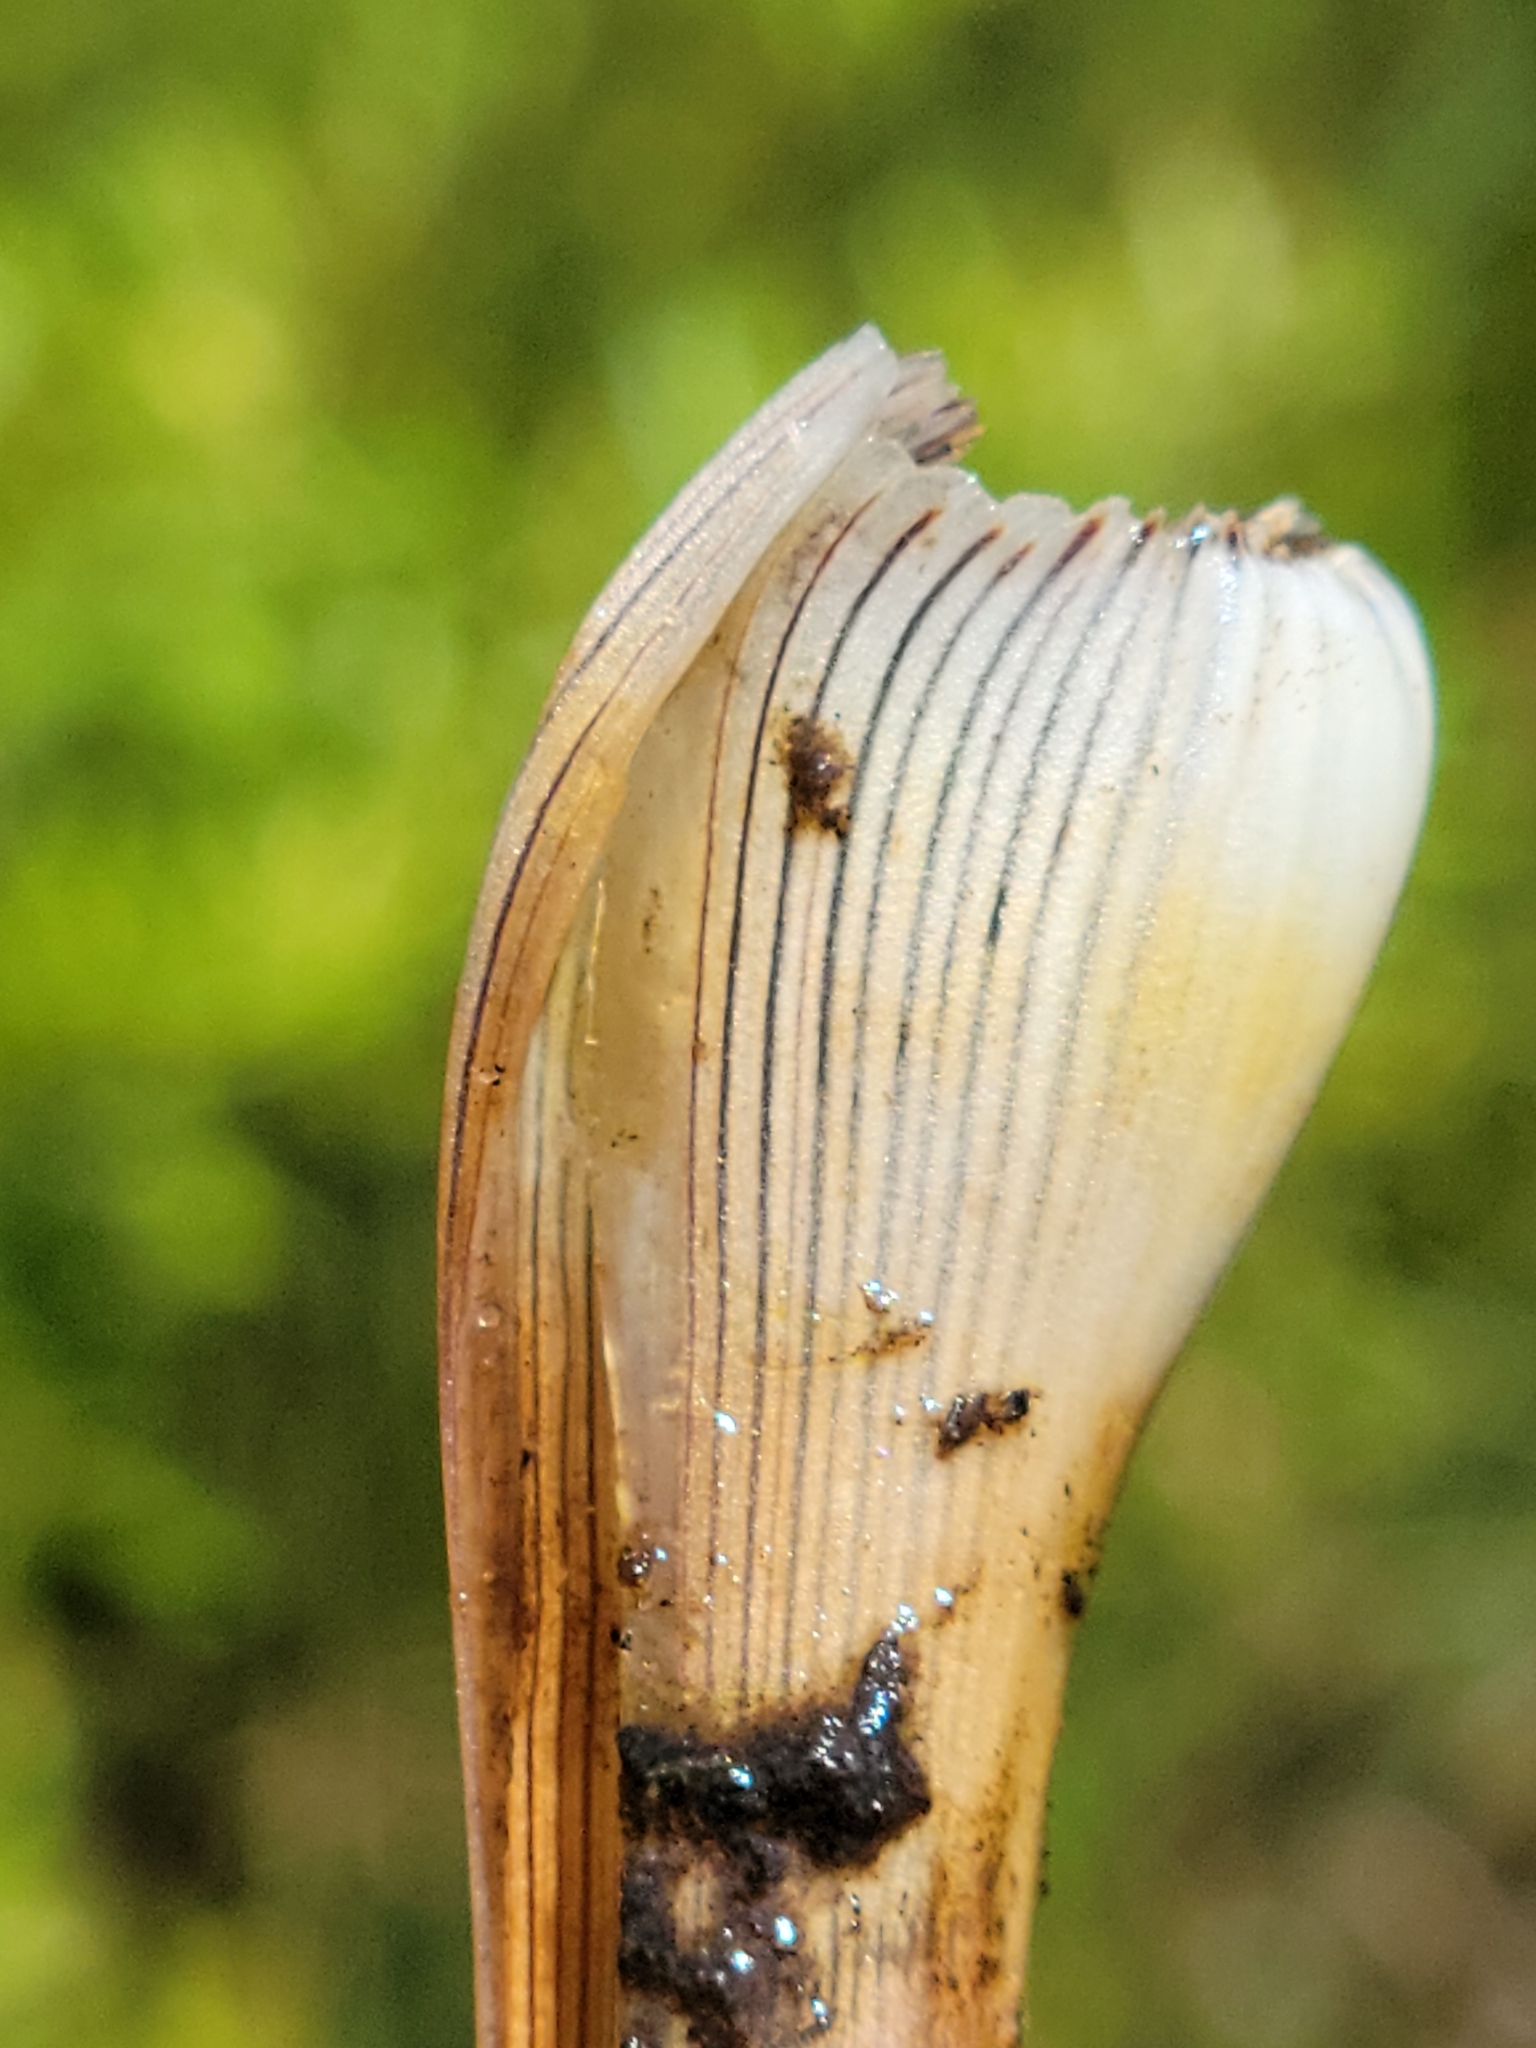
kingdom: Plantae
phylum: Tracheophyta
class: Liliopsida
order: Poales
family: Xyridaceae
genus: Xyris
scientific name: Xyris ambigua
